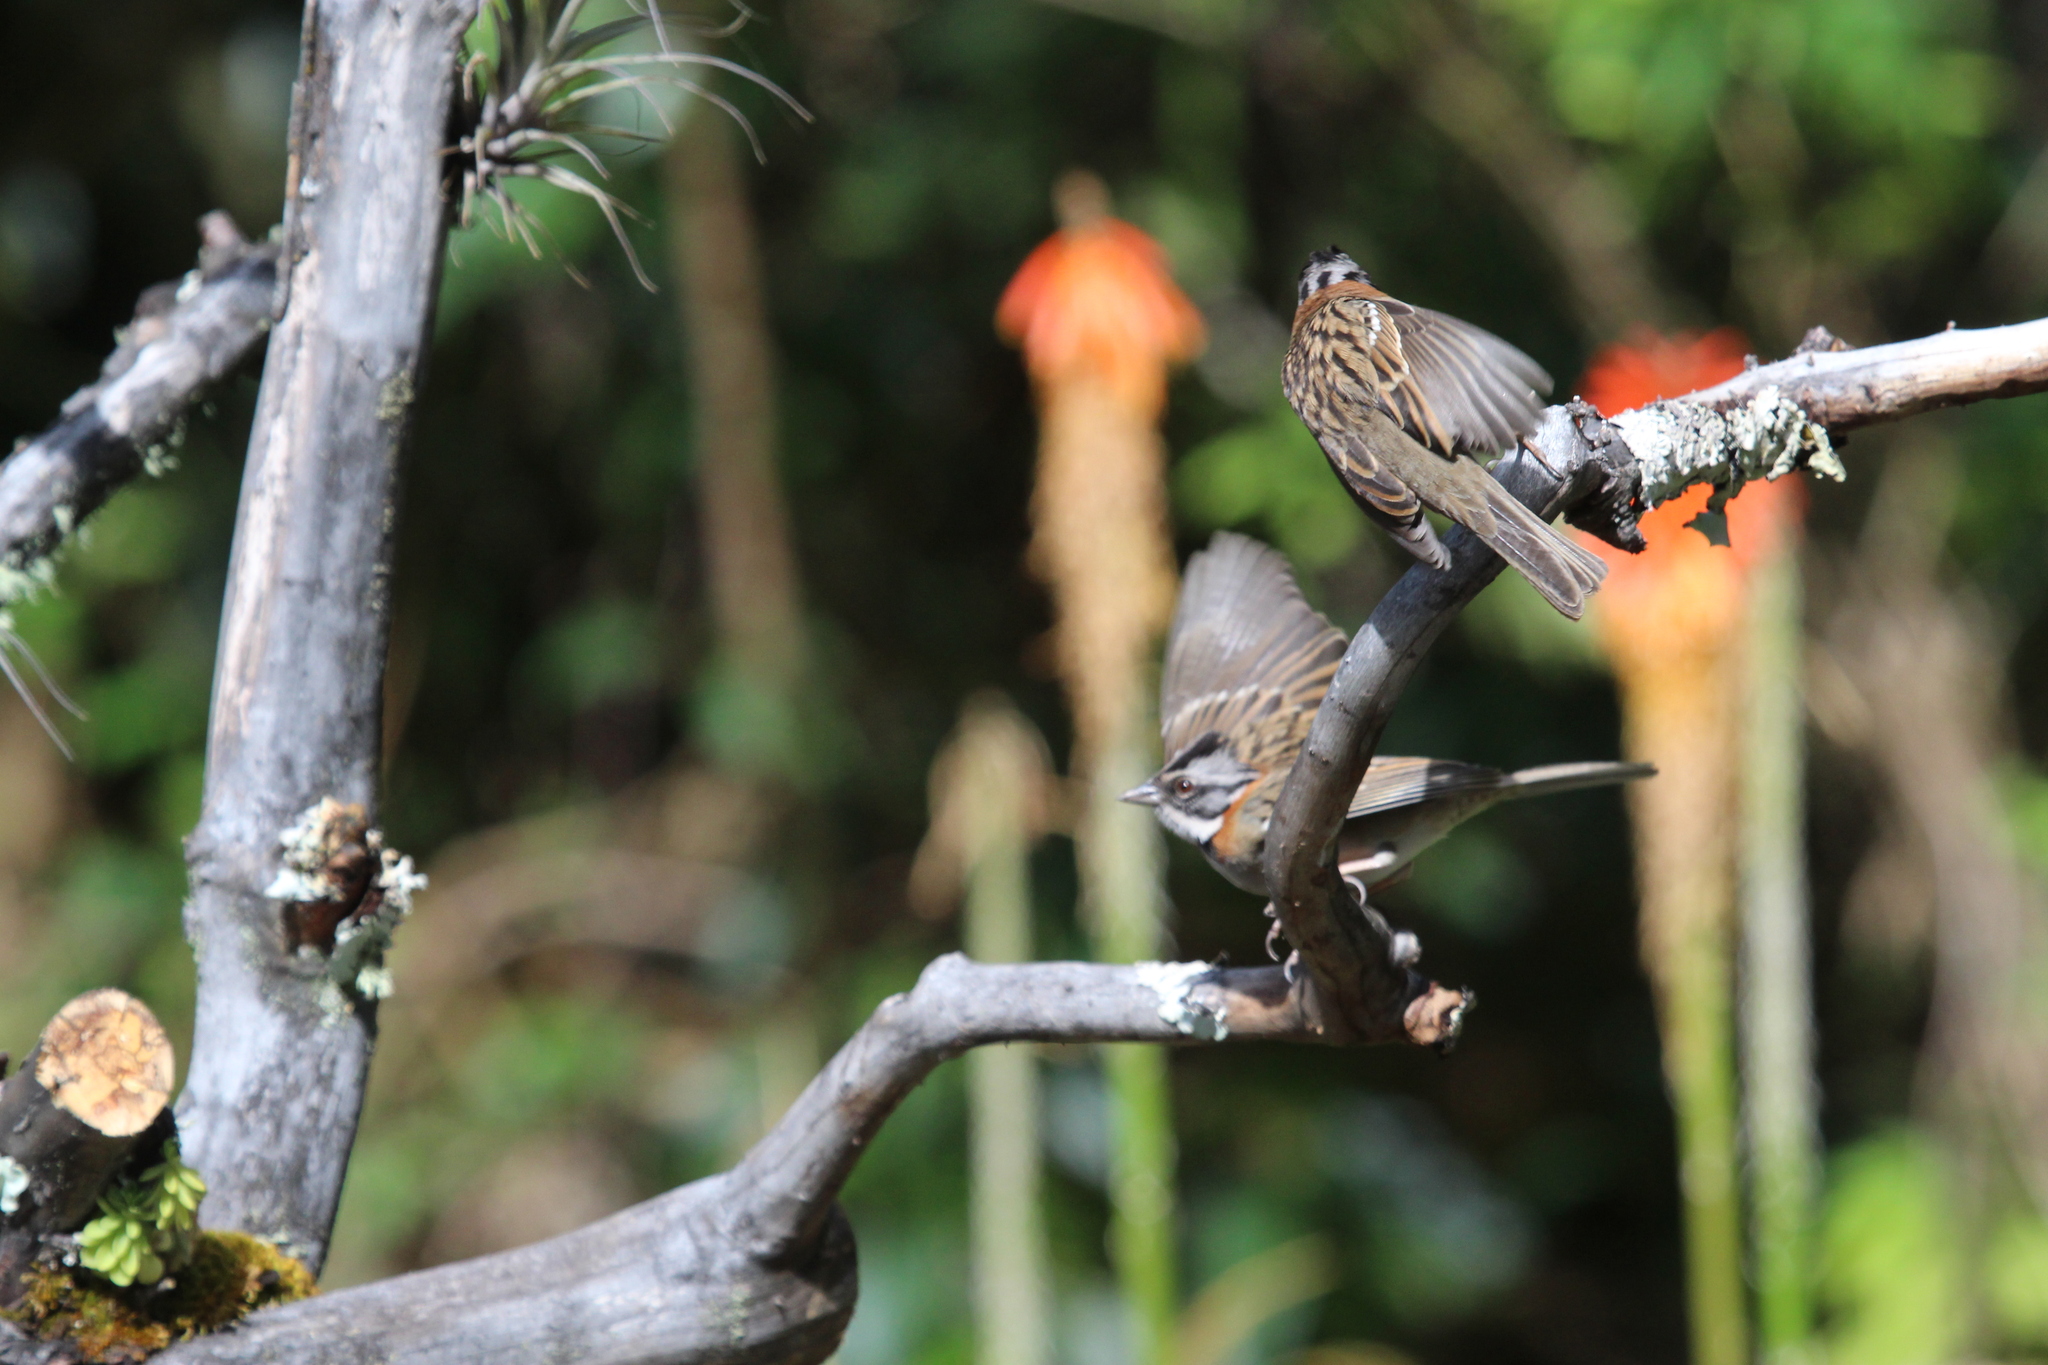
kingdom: Animalia
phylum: Chordata
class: Aves
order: Passeriformes
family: Passerellidae
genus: Zonotrichia
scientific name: Zonotrichia capensis
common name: Rufous-collared sparrow
